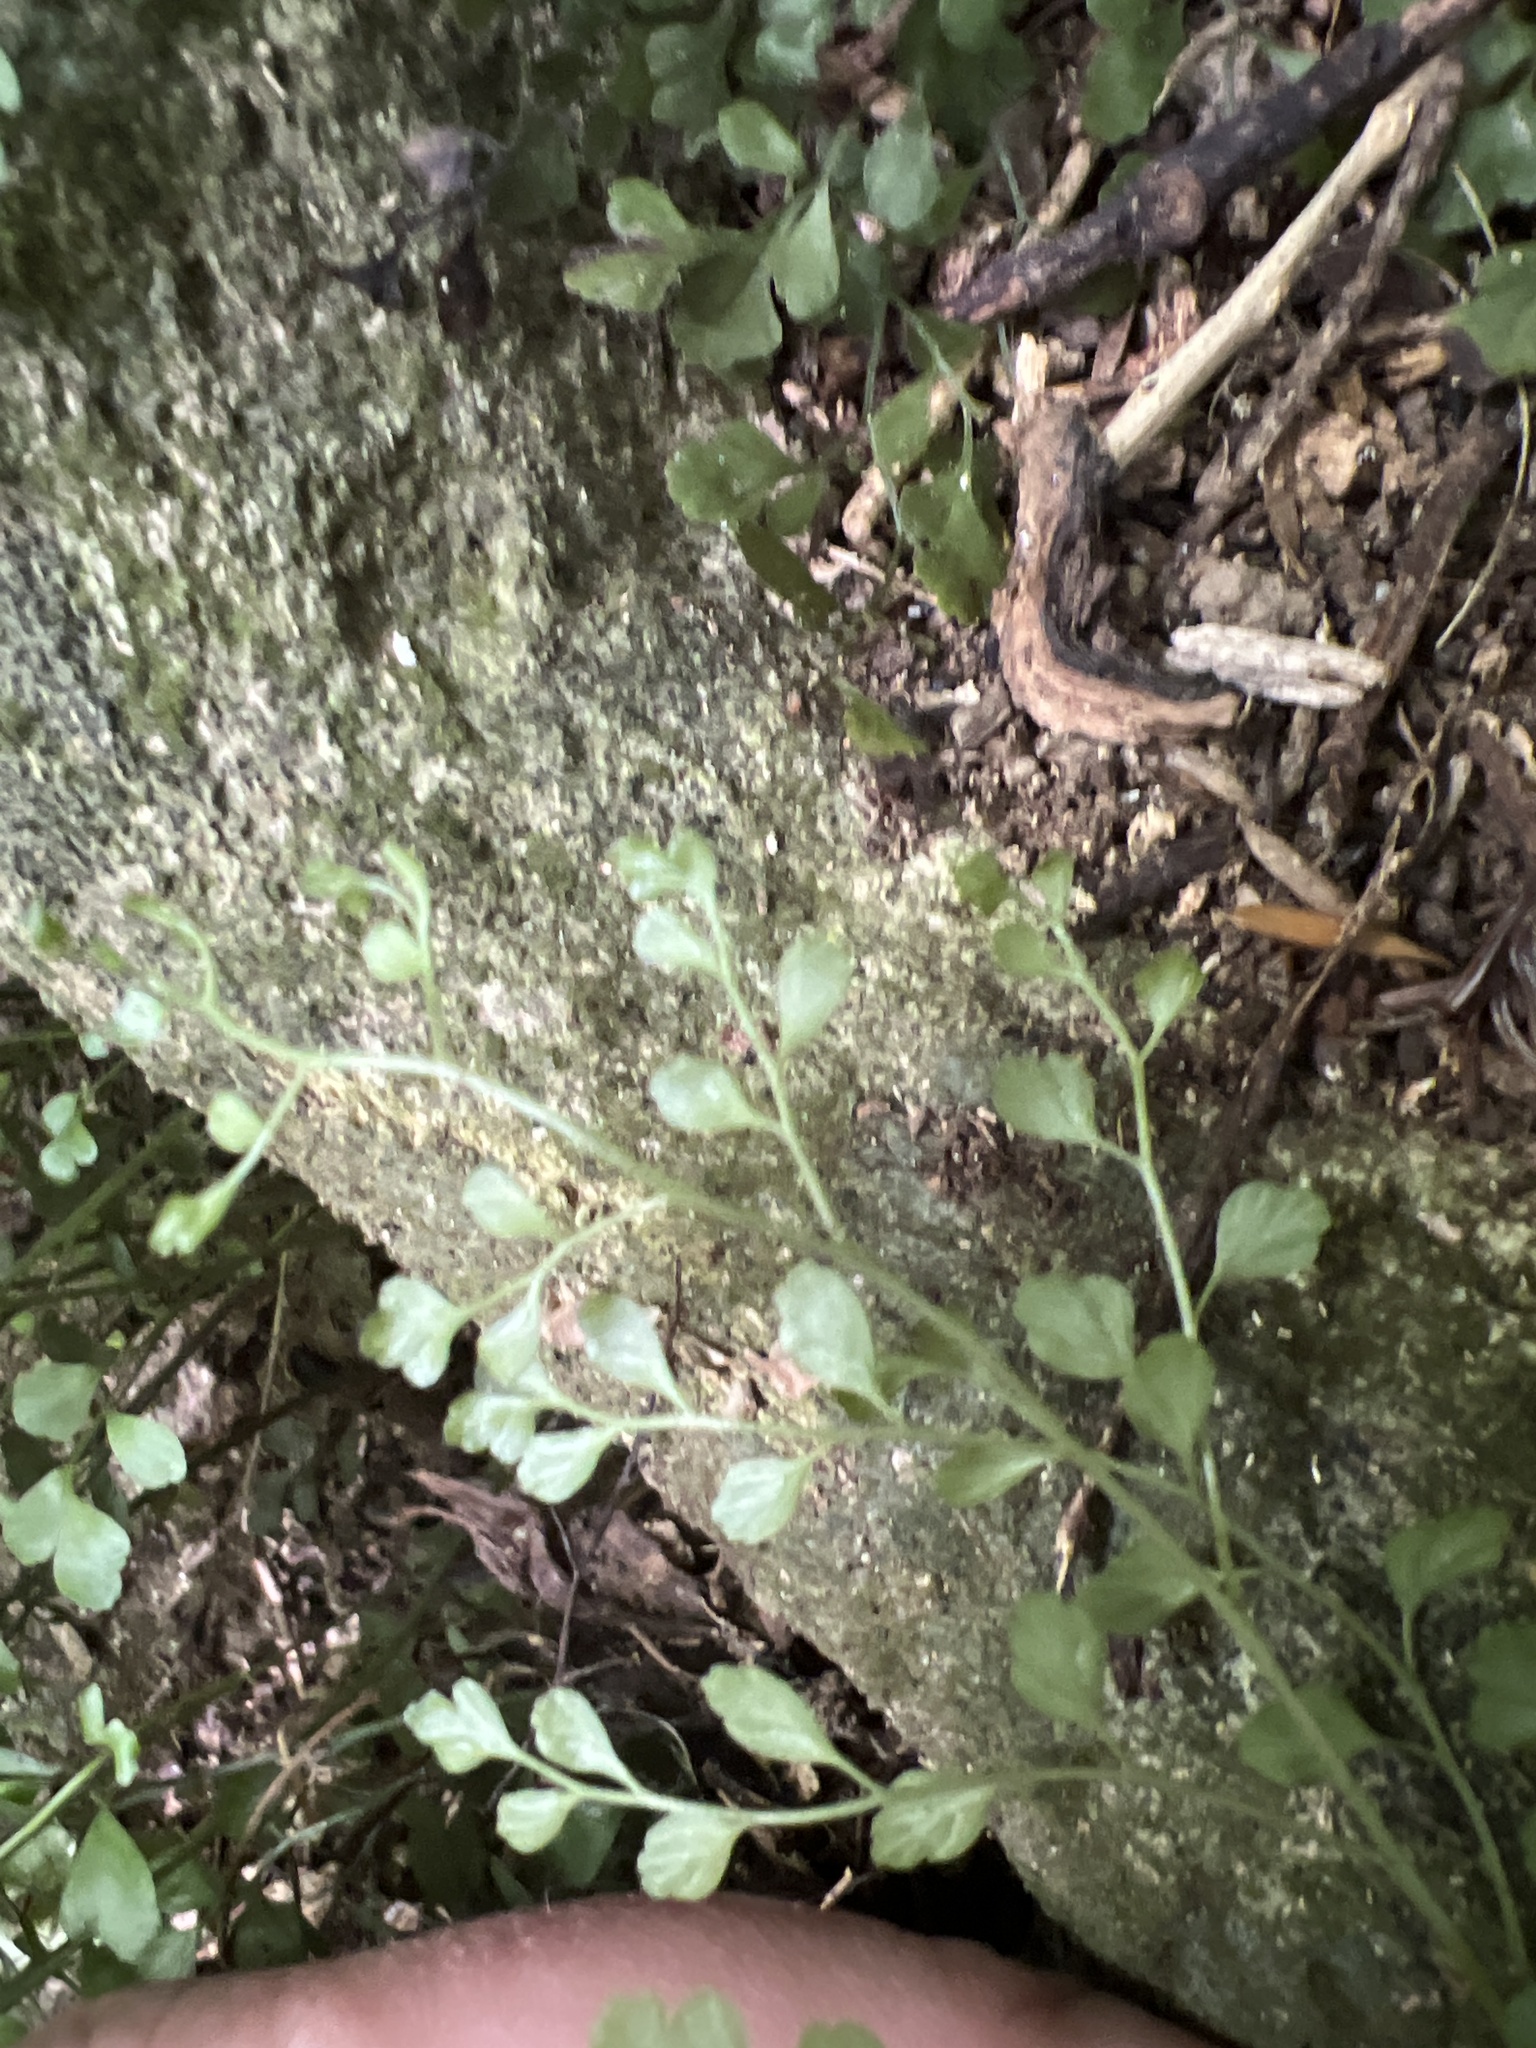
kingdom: Plantae
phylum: Tracheophyta
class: Polypodiopsida
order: Polypodiales
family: Aspleniaceae
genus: Asplenium
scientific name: Asplenium hookerianum
